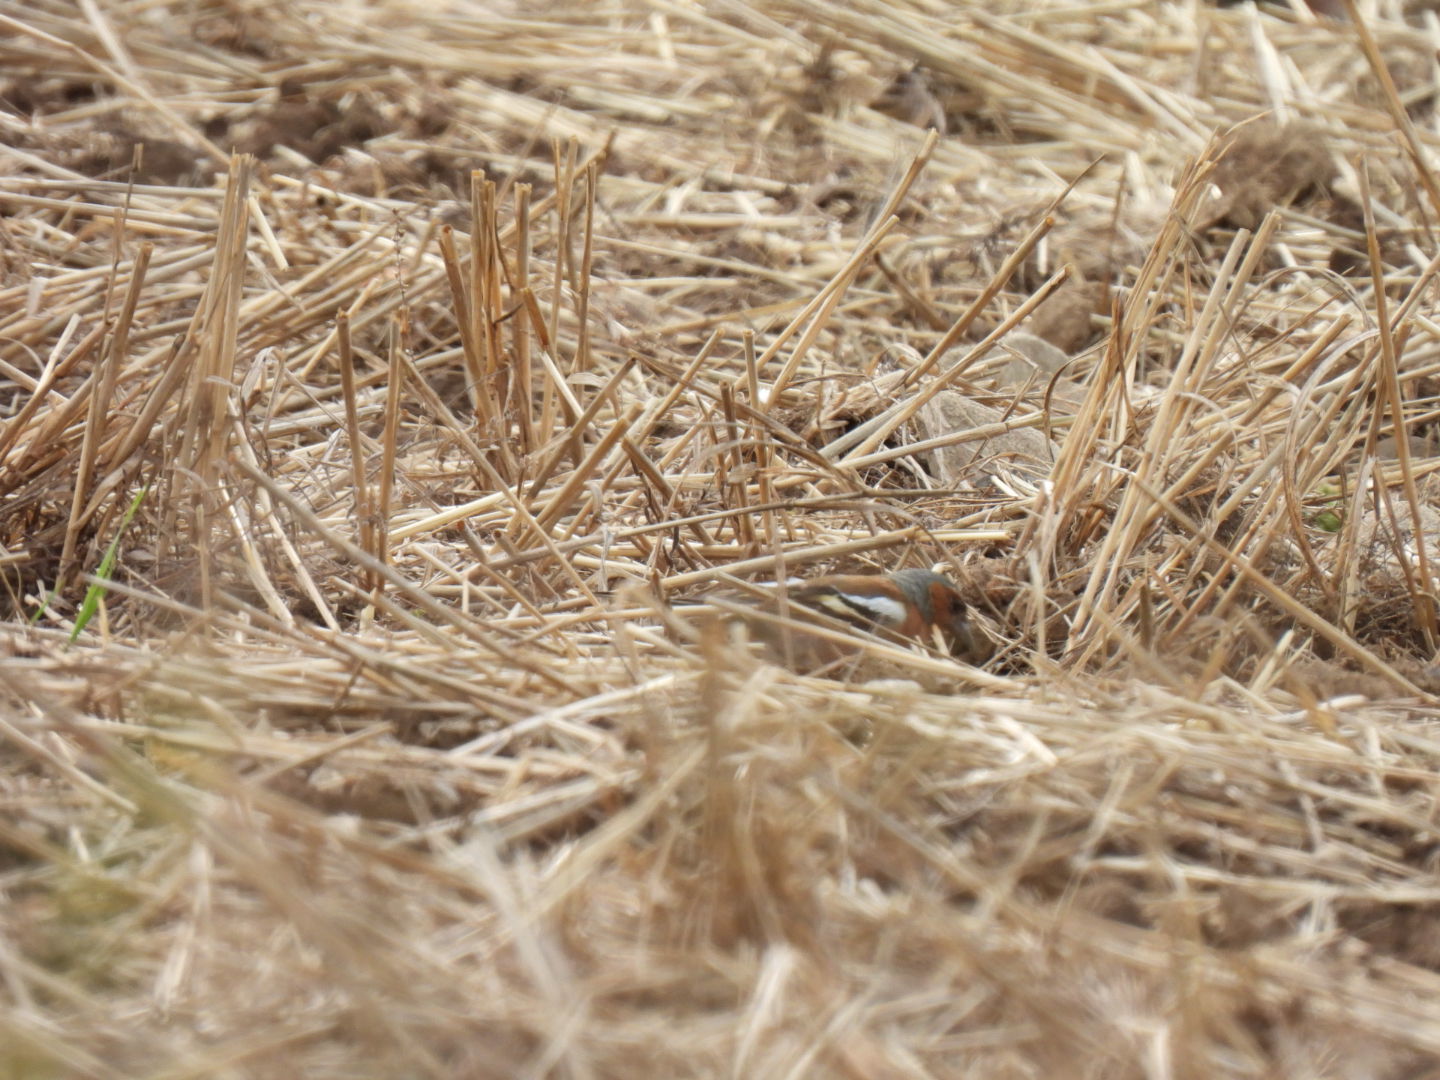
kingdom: Animalia
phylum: Chordata
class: Aves
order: Passeriformes
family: Fringillidae
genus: Fringilla
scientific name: Fringilla coelebs
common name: Common chaffinch
